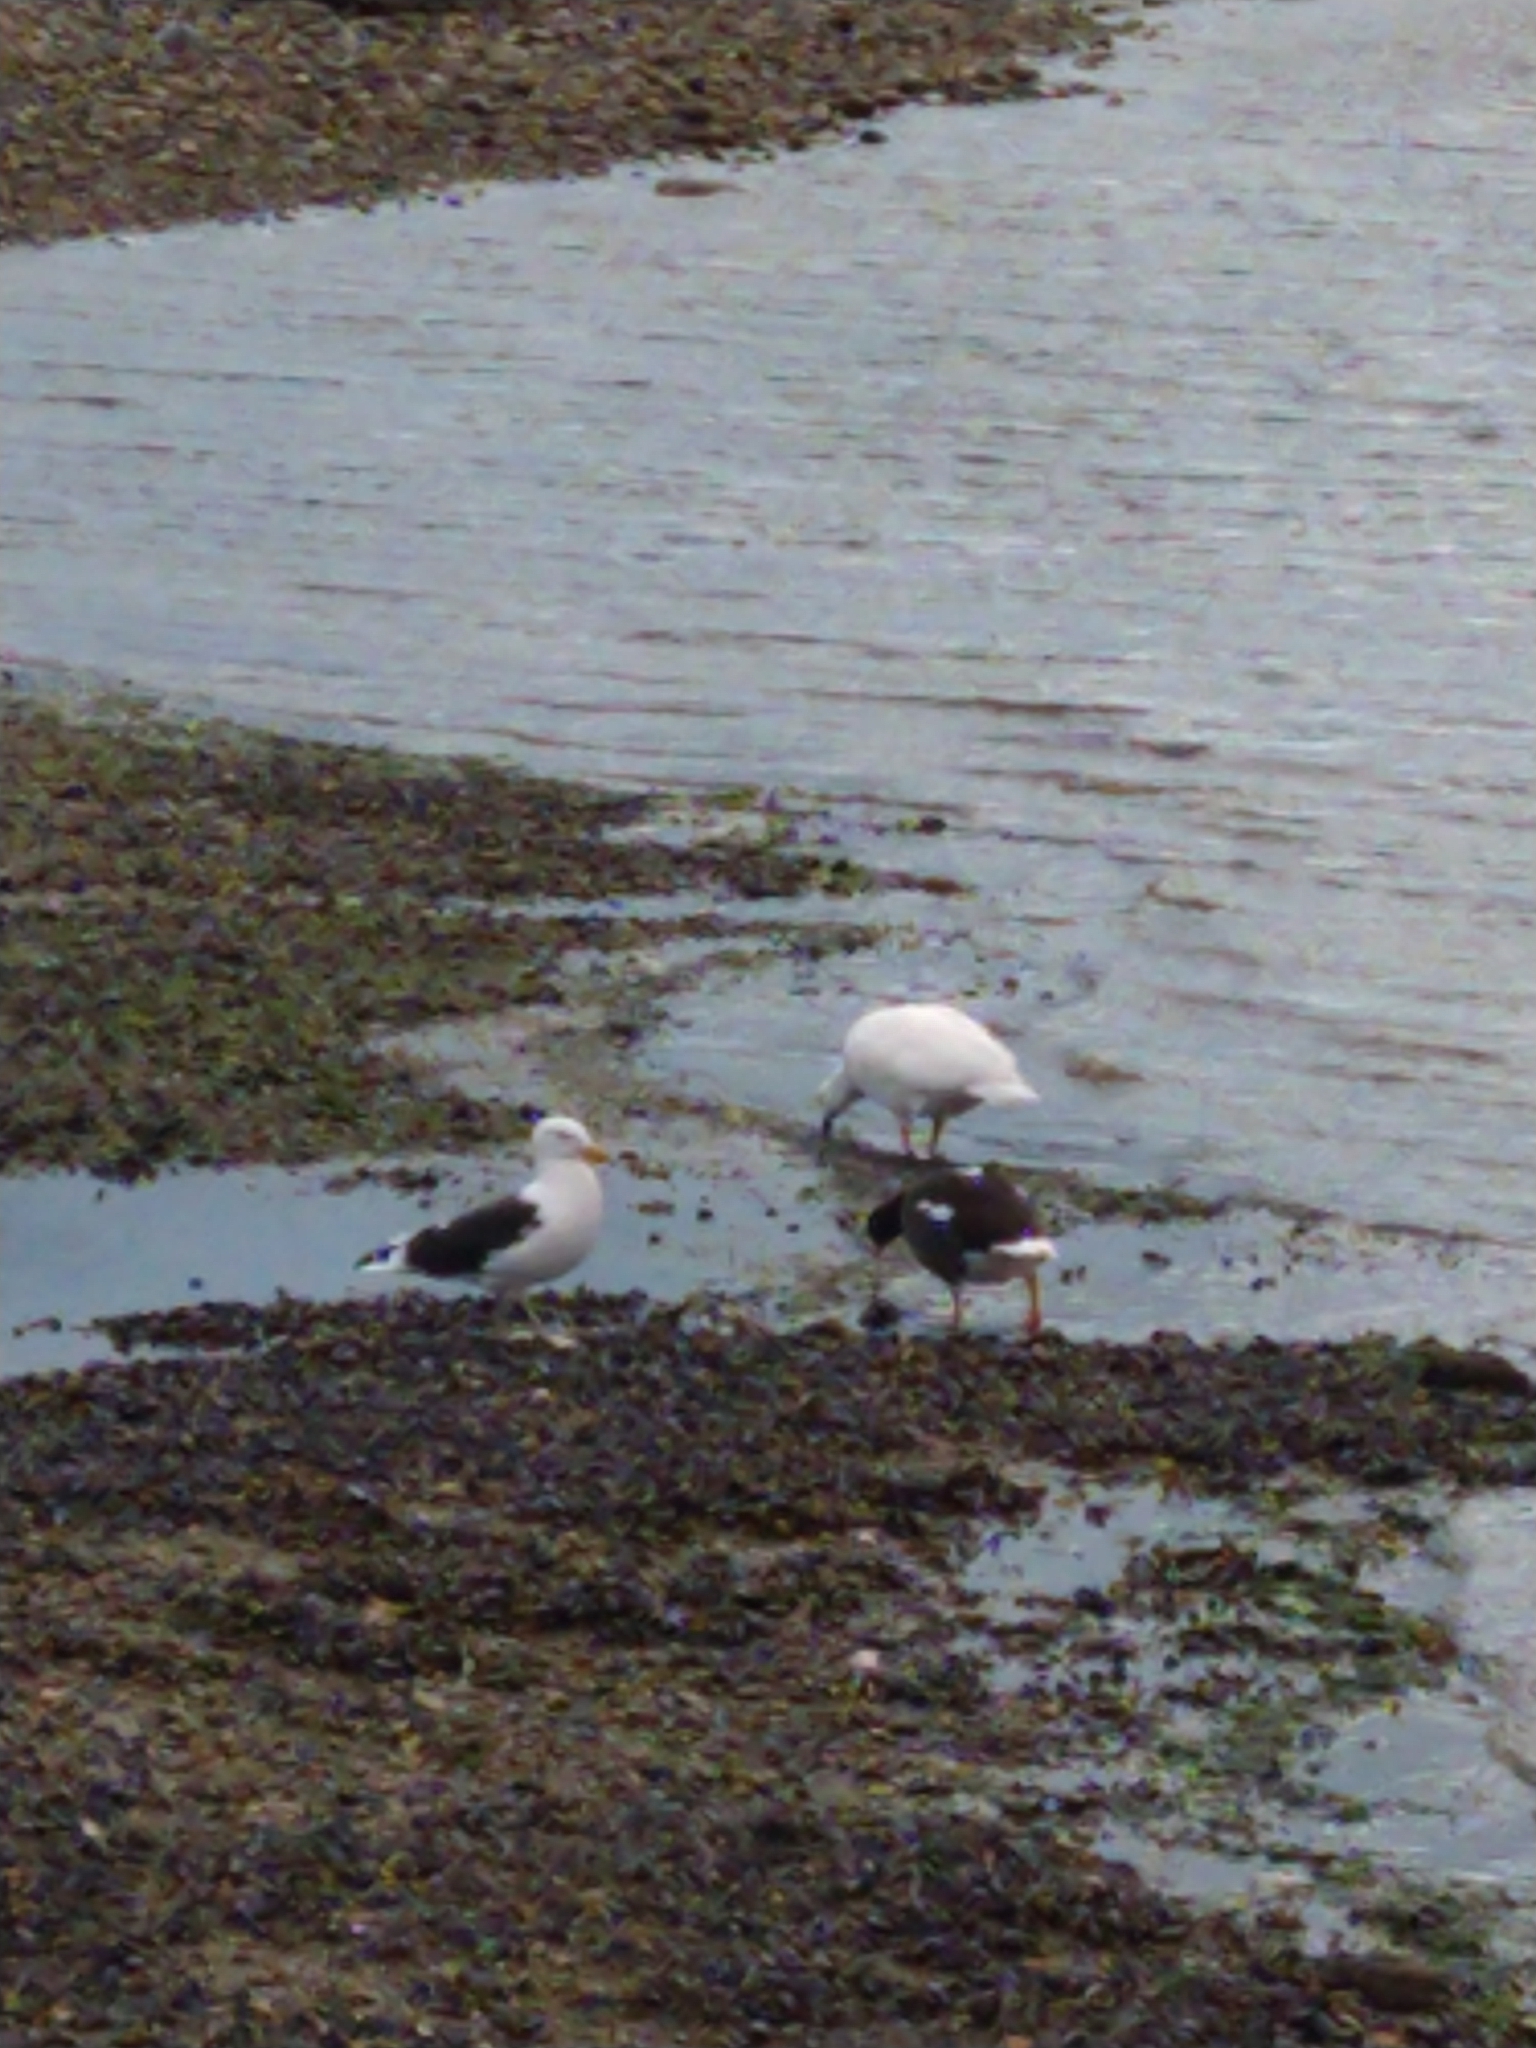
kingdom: Animalia
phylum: Chordata
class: Aves
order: Anseriformes
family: Anatidae
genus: Chloephaga
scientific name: Chloephaga hybrida
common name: Kelp goose
